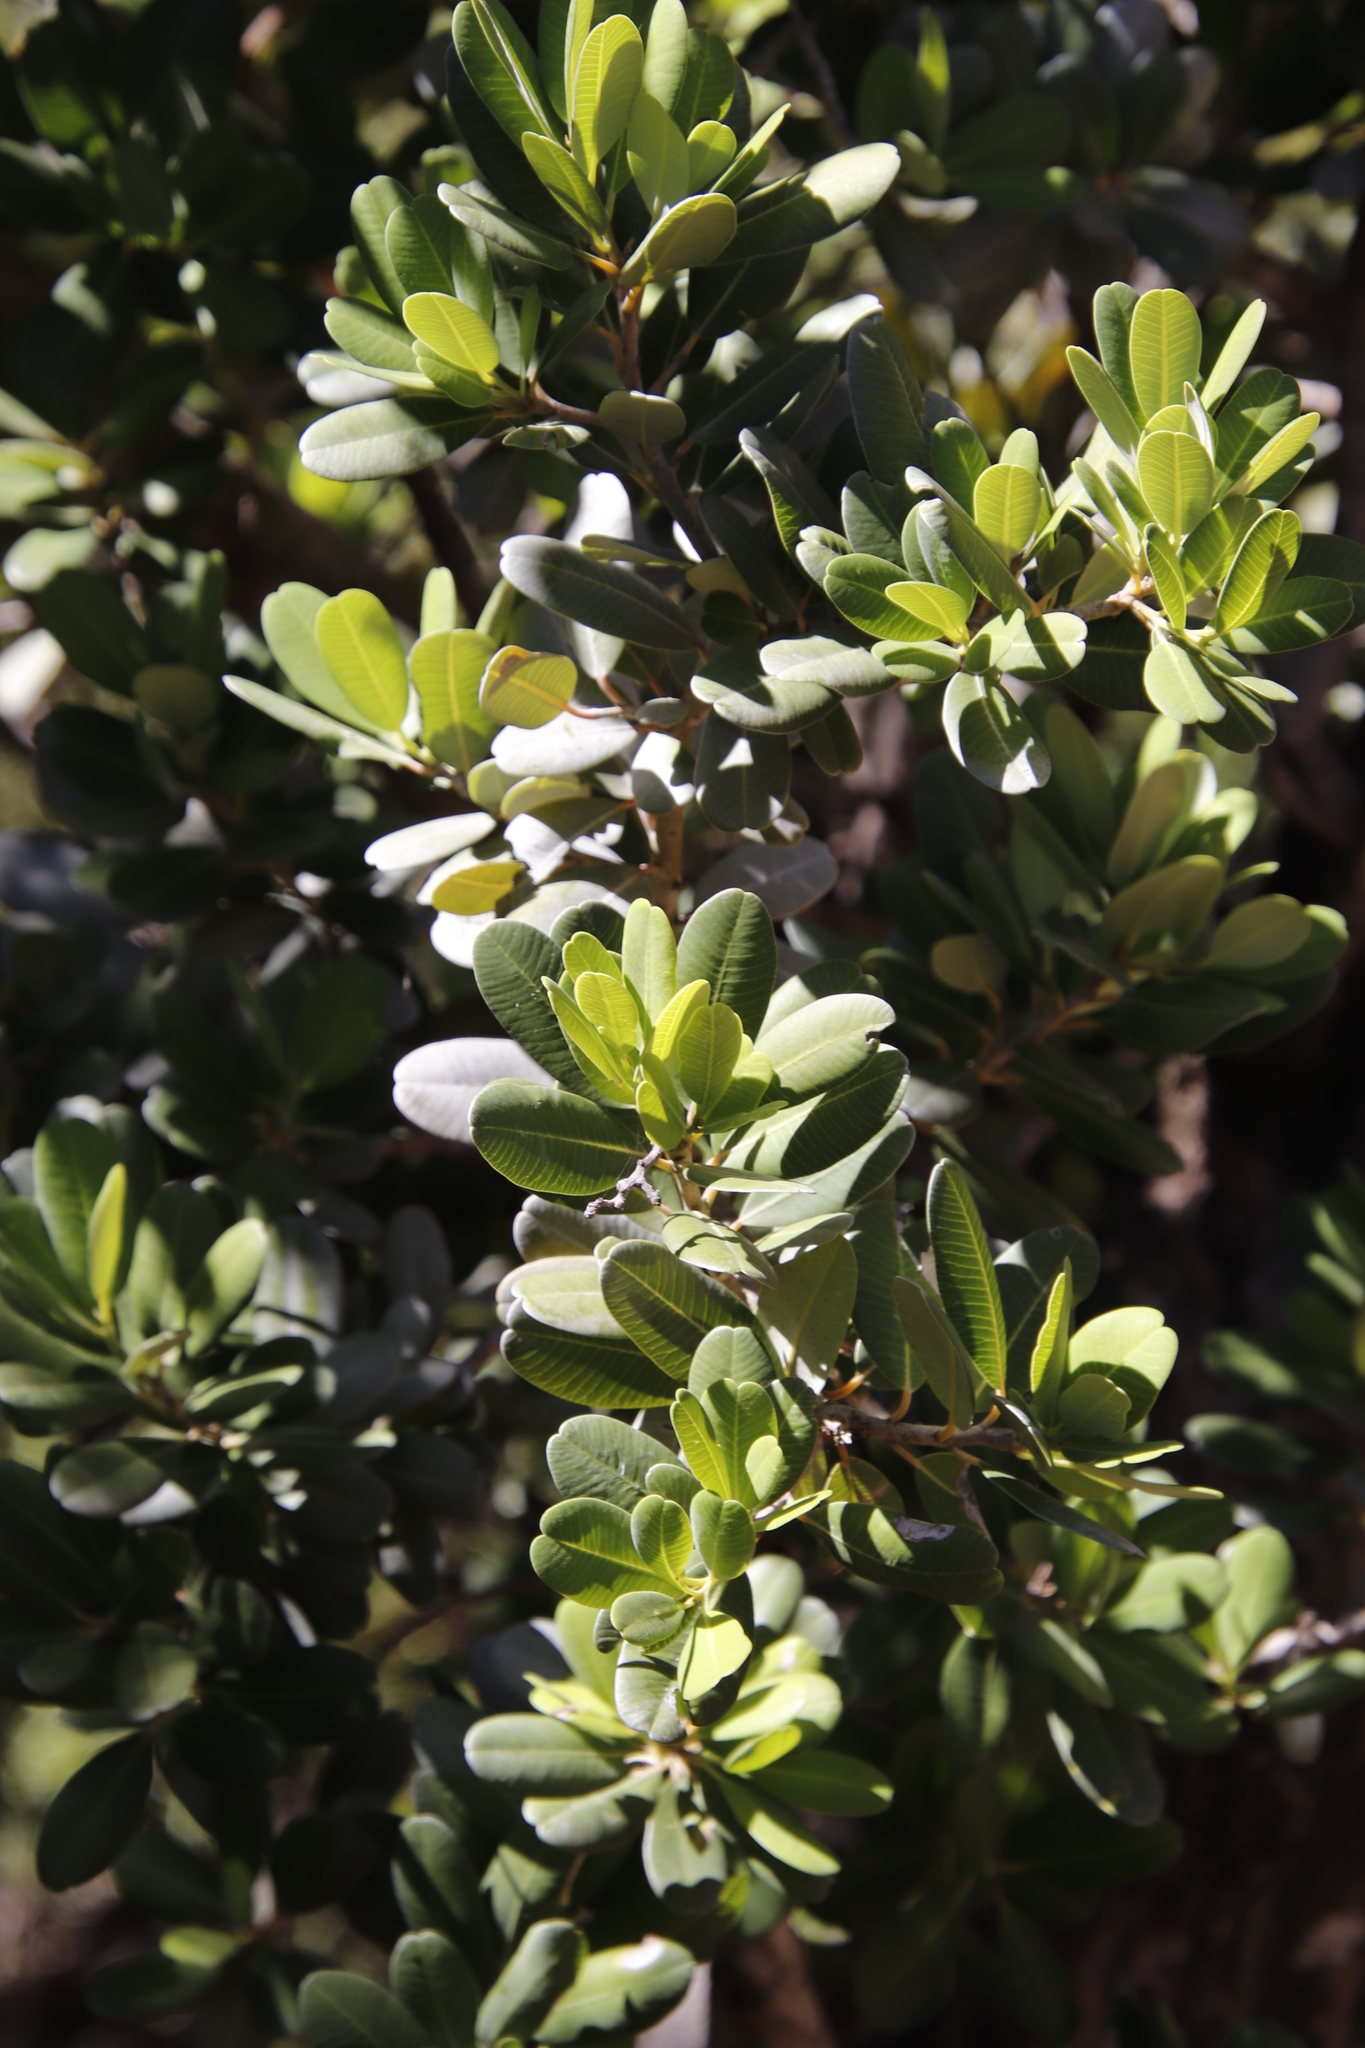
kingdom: Plantae
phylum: Tracheophyta
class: Magnoliopsida
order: Sapindales
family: Anacardiaceae
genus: Heeria
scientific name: Heeria argentea
